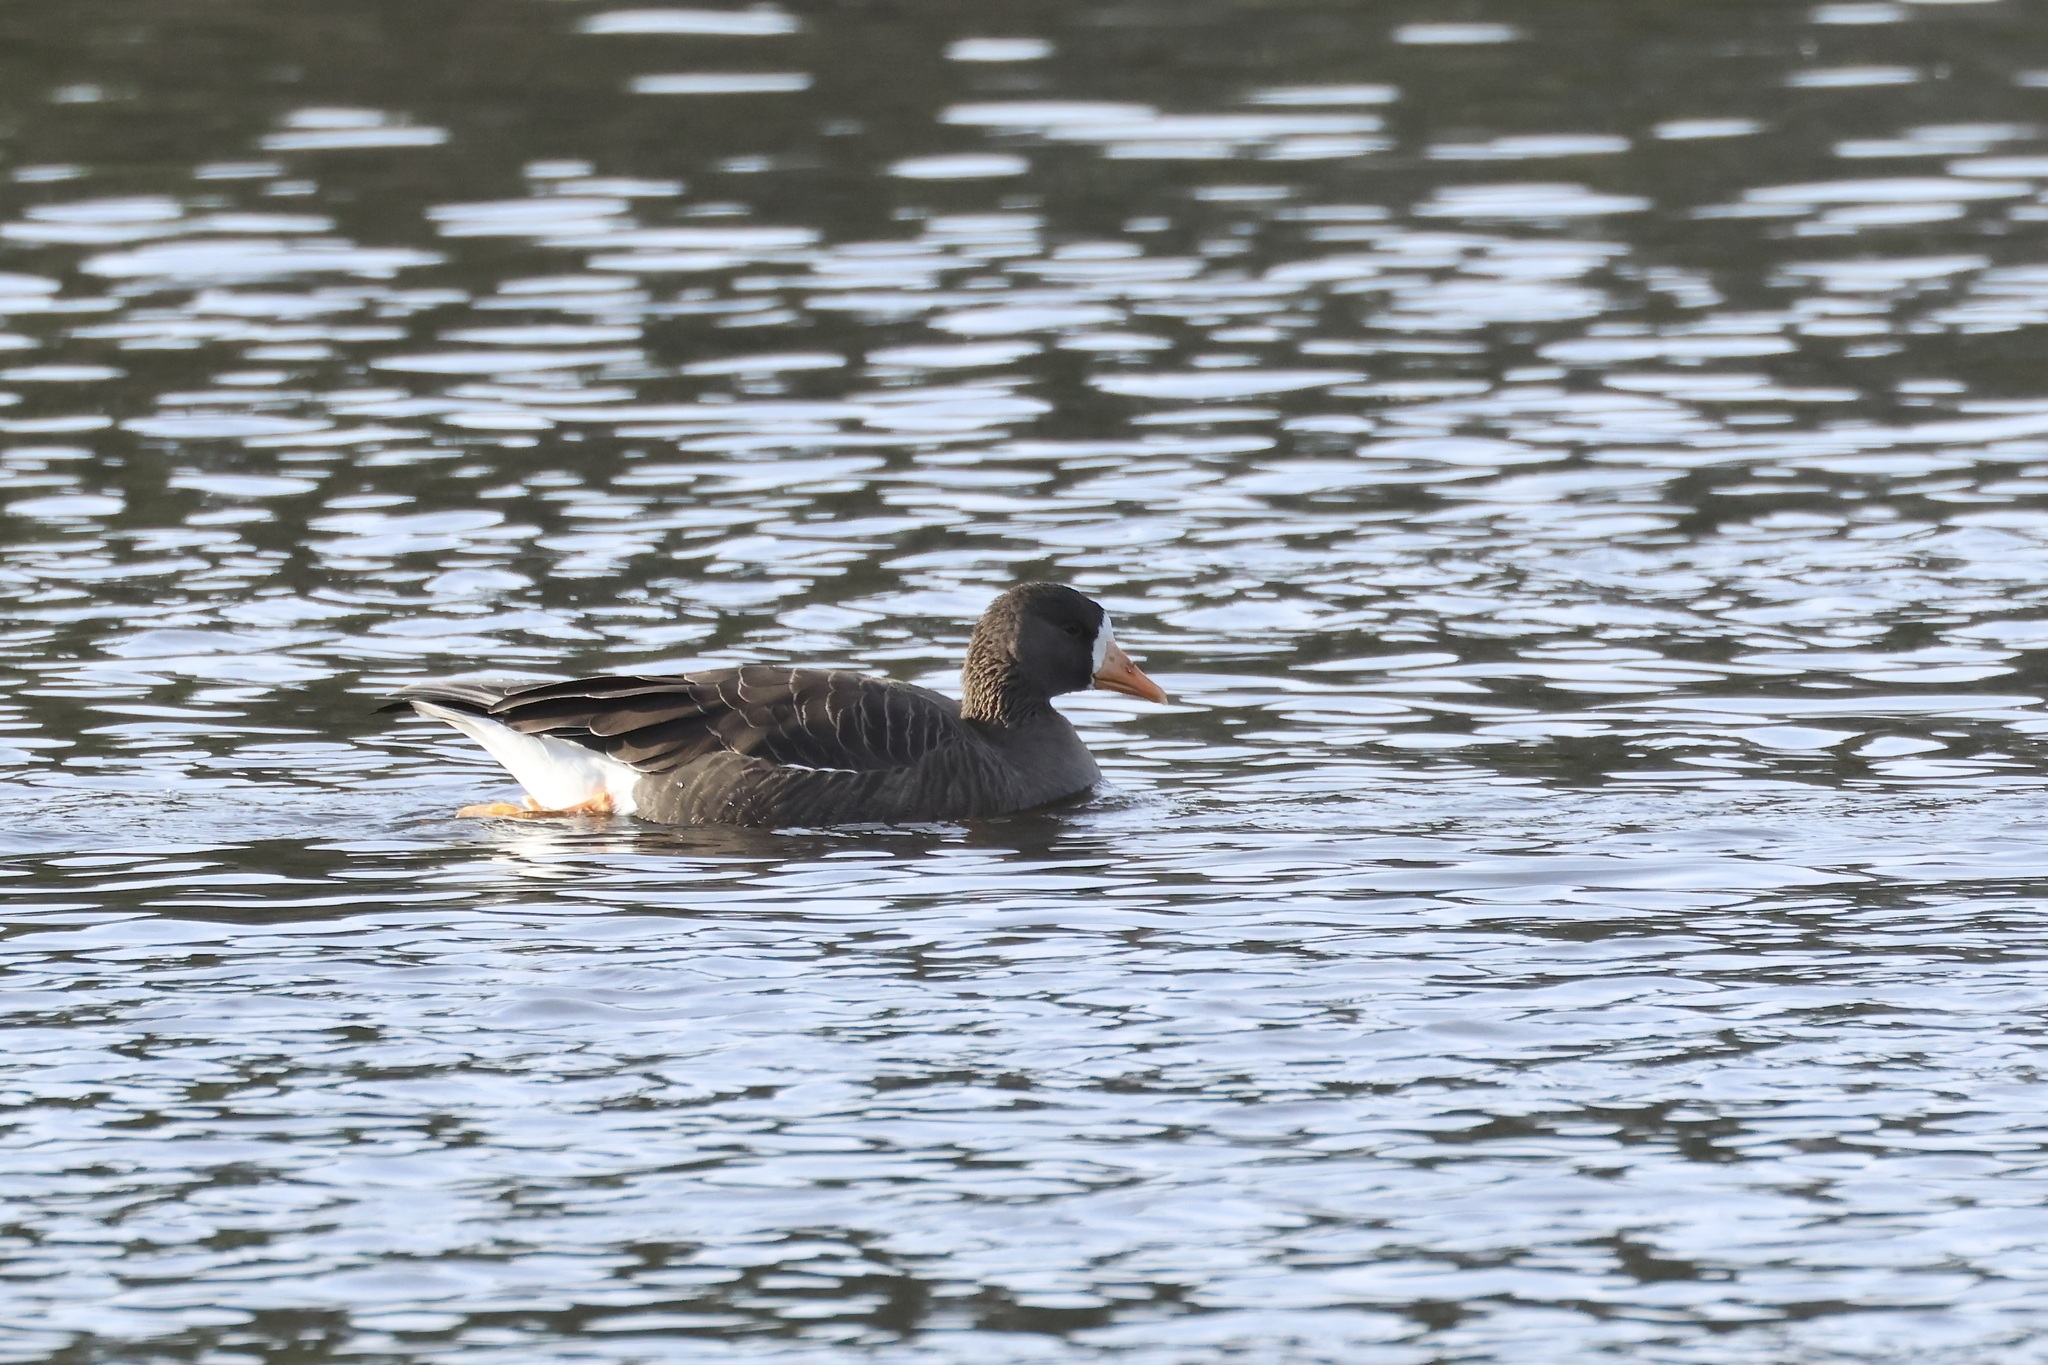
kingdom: Animalia
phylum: Chordata
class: Aves
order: Anseriformes
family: Anatidae
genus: Anser
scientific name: Anser albifrons
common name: Greater white-fronted goose
